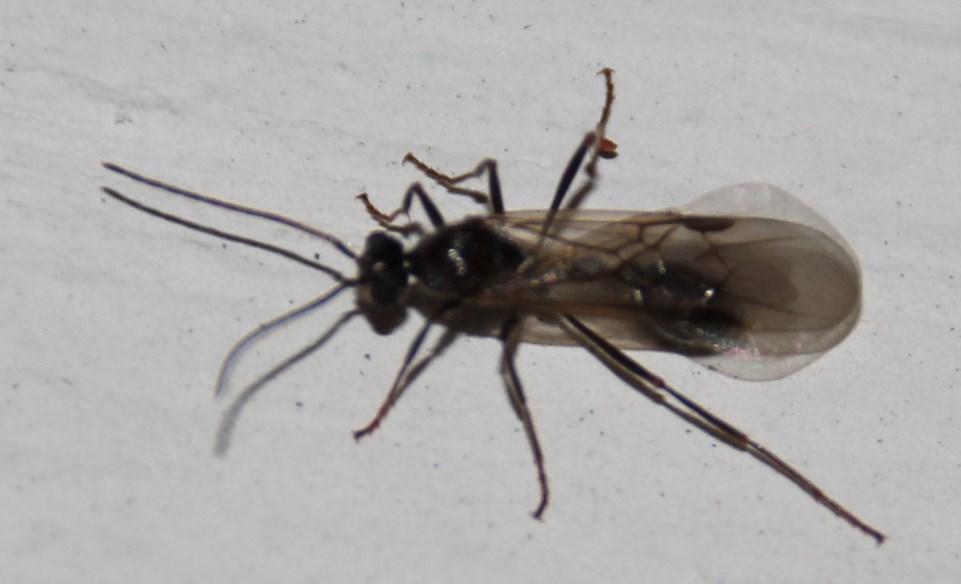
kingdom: Animalia
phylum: Arthropoda
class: Insecta
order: Hymenoptera
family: Formicidae
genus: Myrmicaria
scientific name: Myrmicaria nigra
